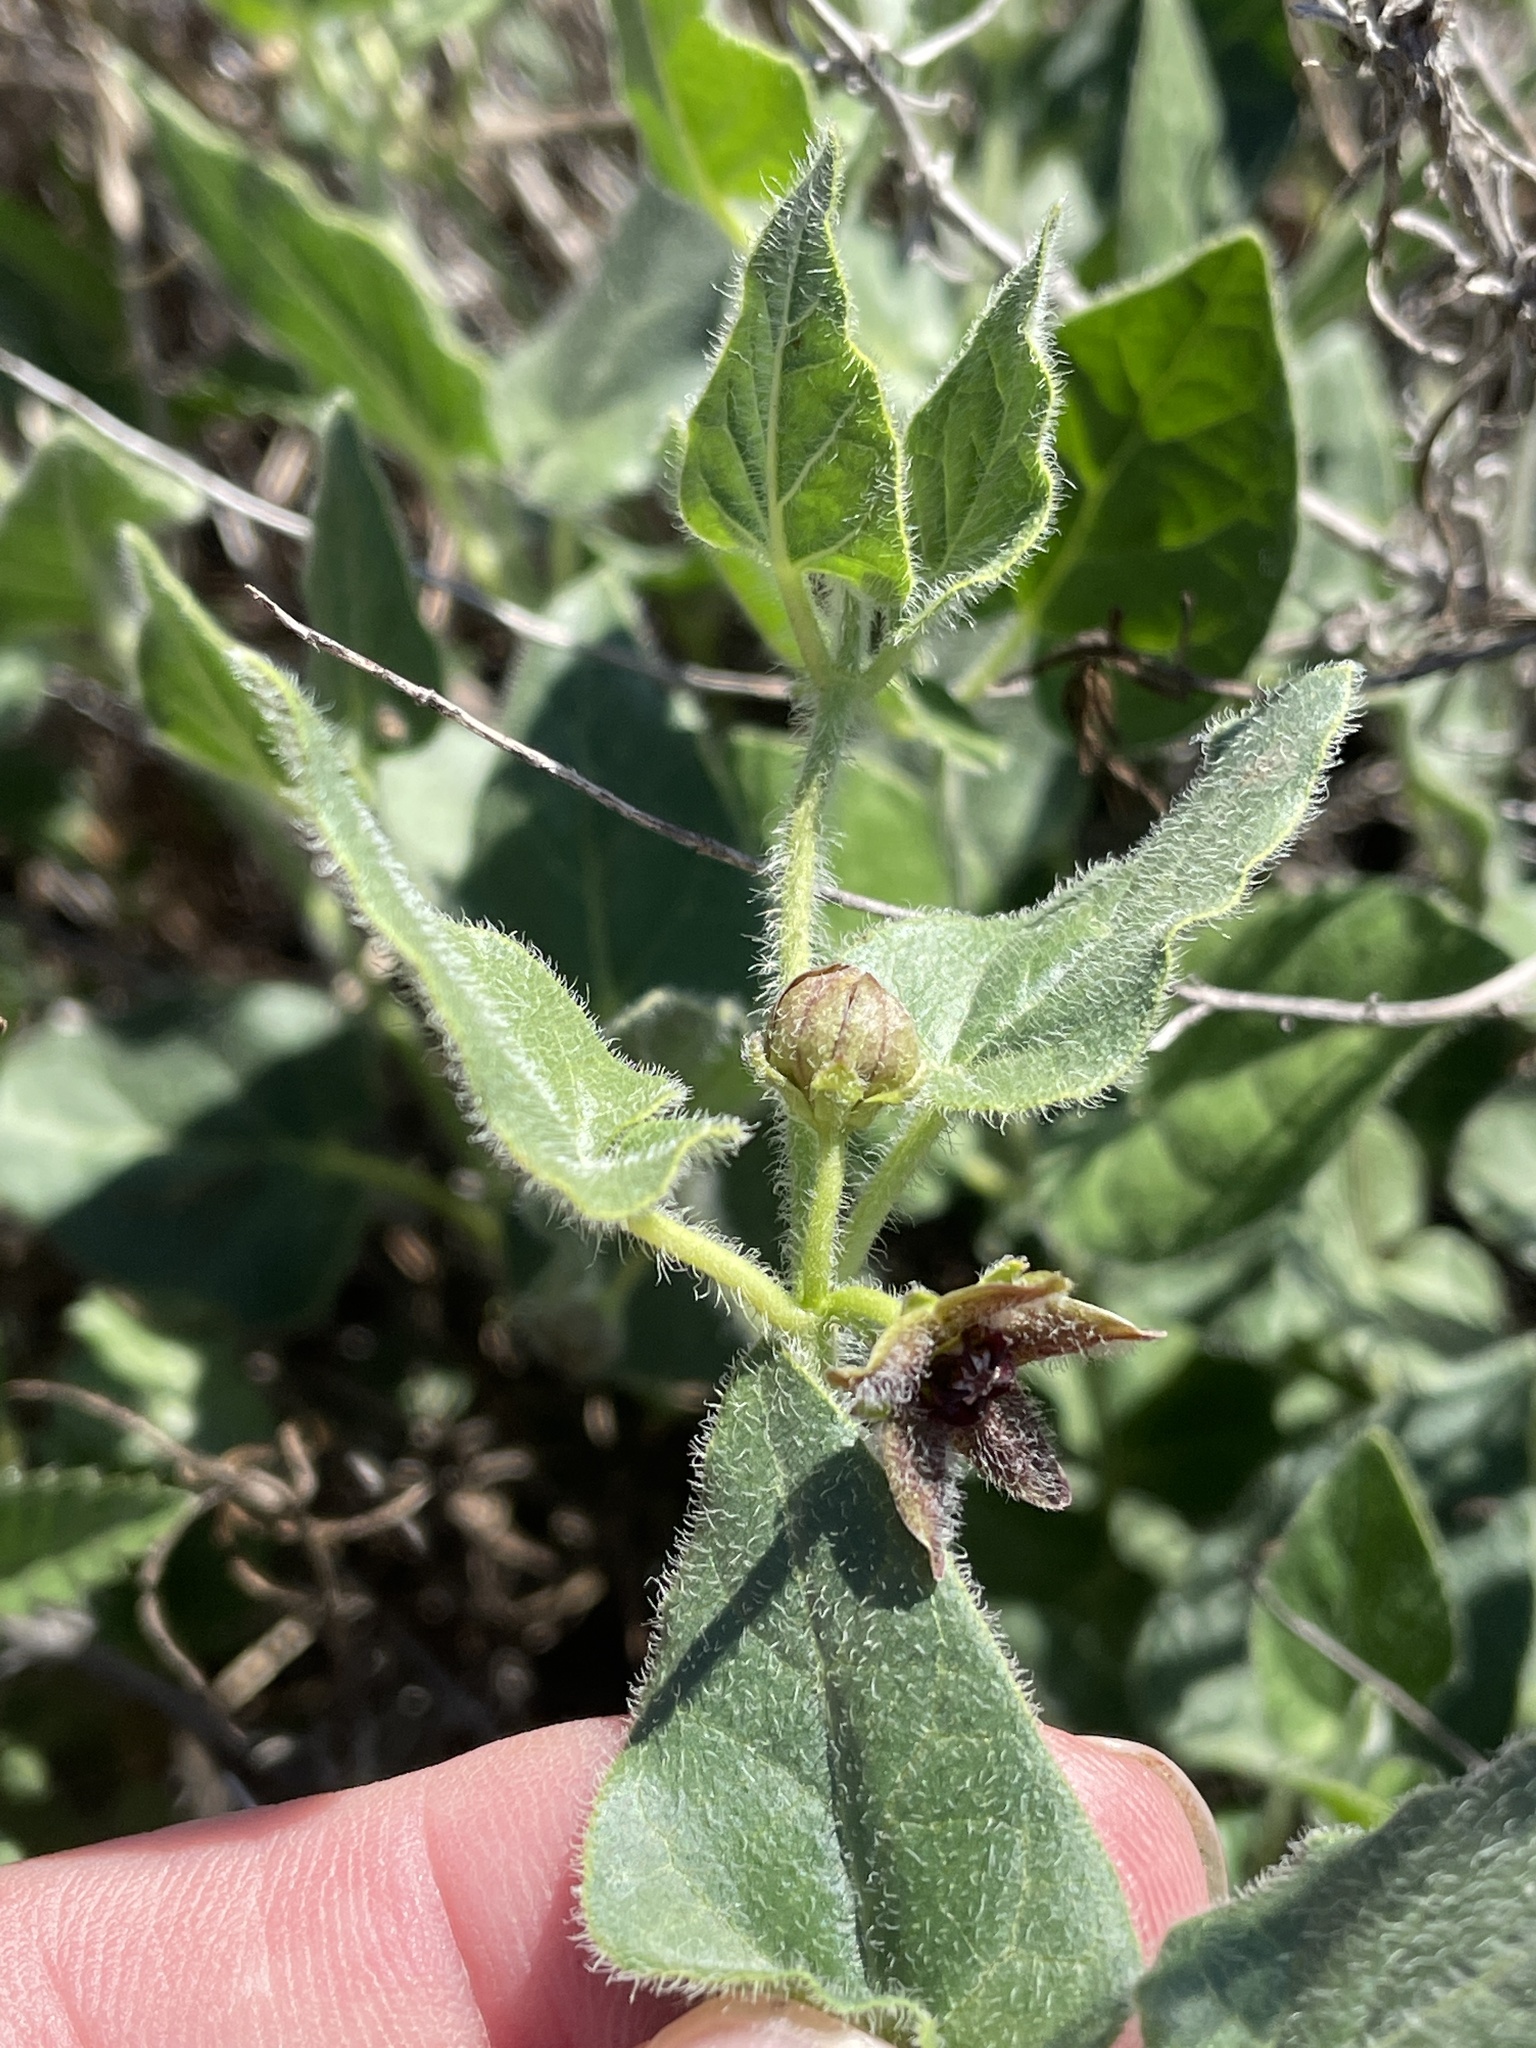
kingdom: Plantae
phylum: Tracheophyta
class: Magnoliopsida
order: Gentianales
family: Apocynaceae
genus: Chthamalia
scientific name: Chthamalia biflora
